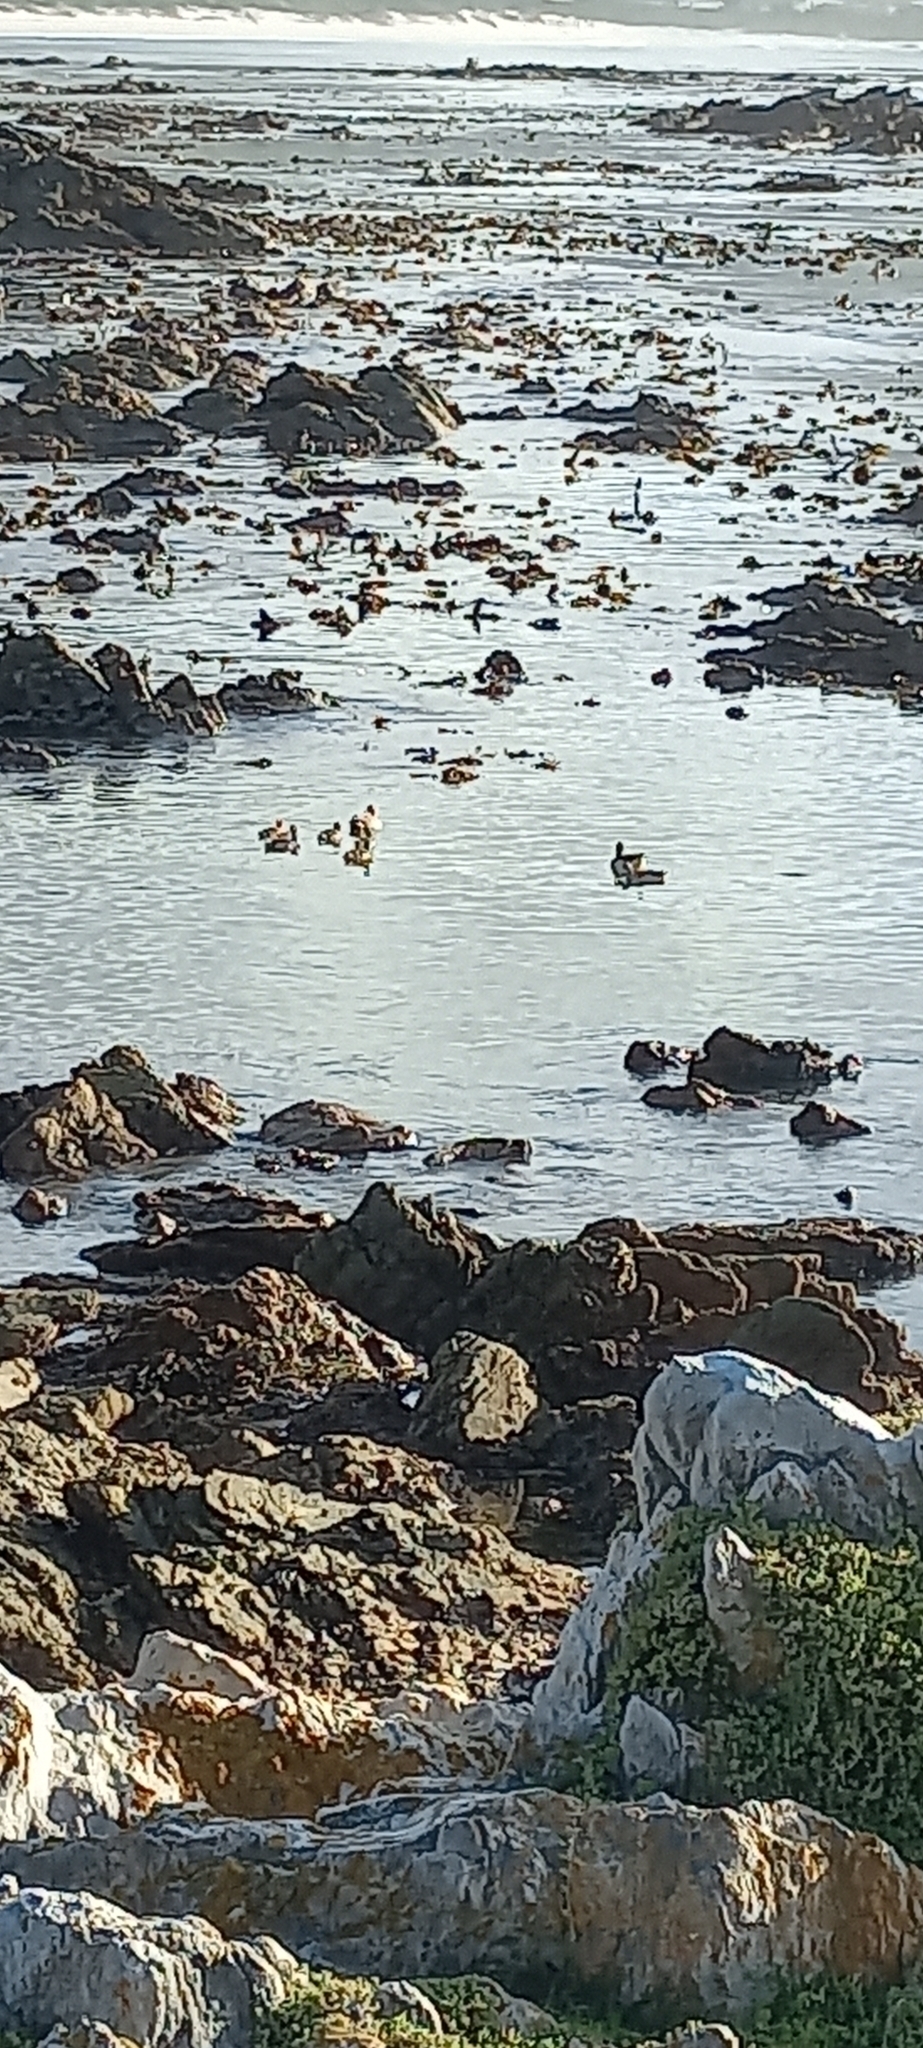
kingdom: Animalia
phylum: Chordata
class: Aves
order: Anseriformes
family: Anatidae
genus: Alopochen
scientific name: Alopochen aegyptiaca
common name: Egyptian goose
